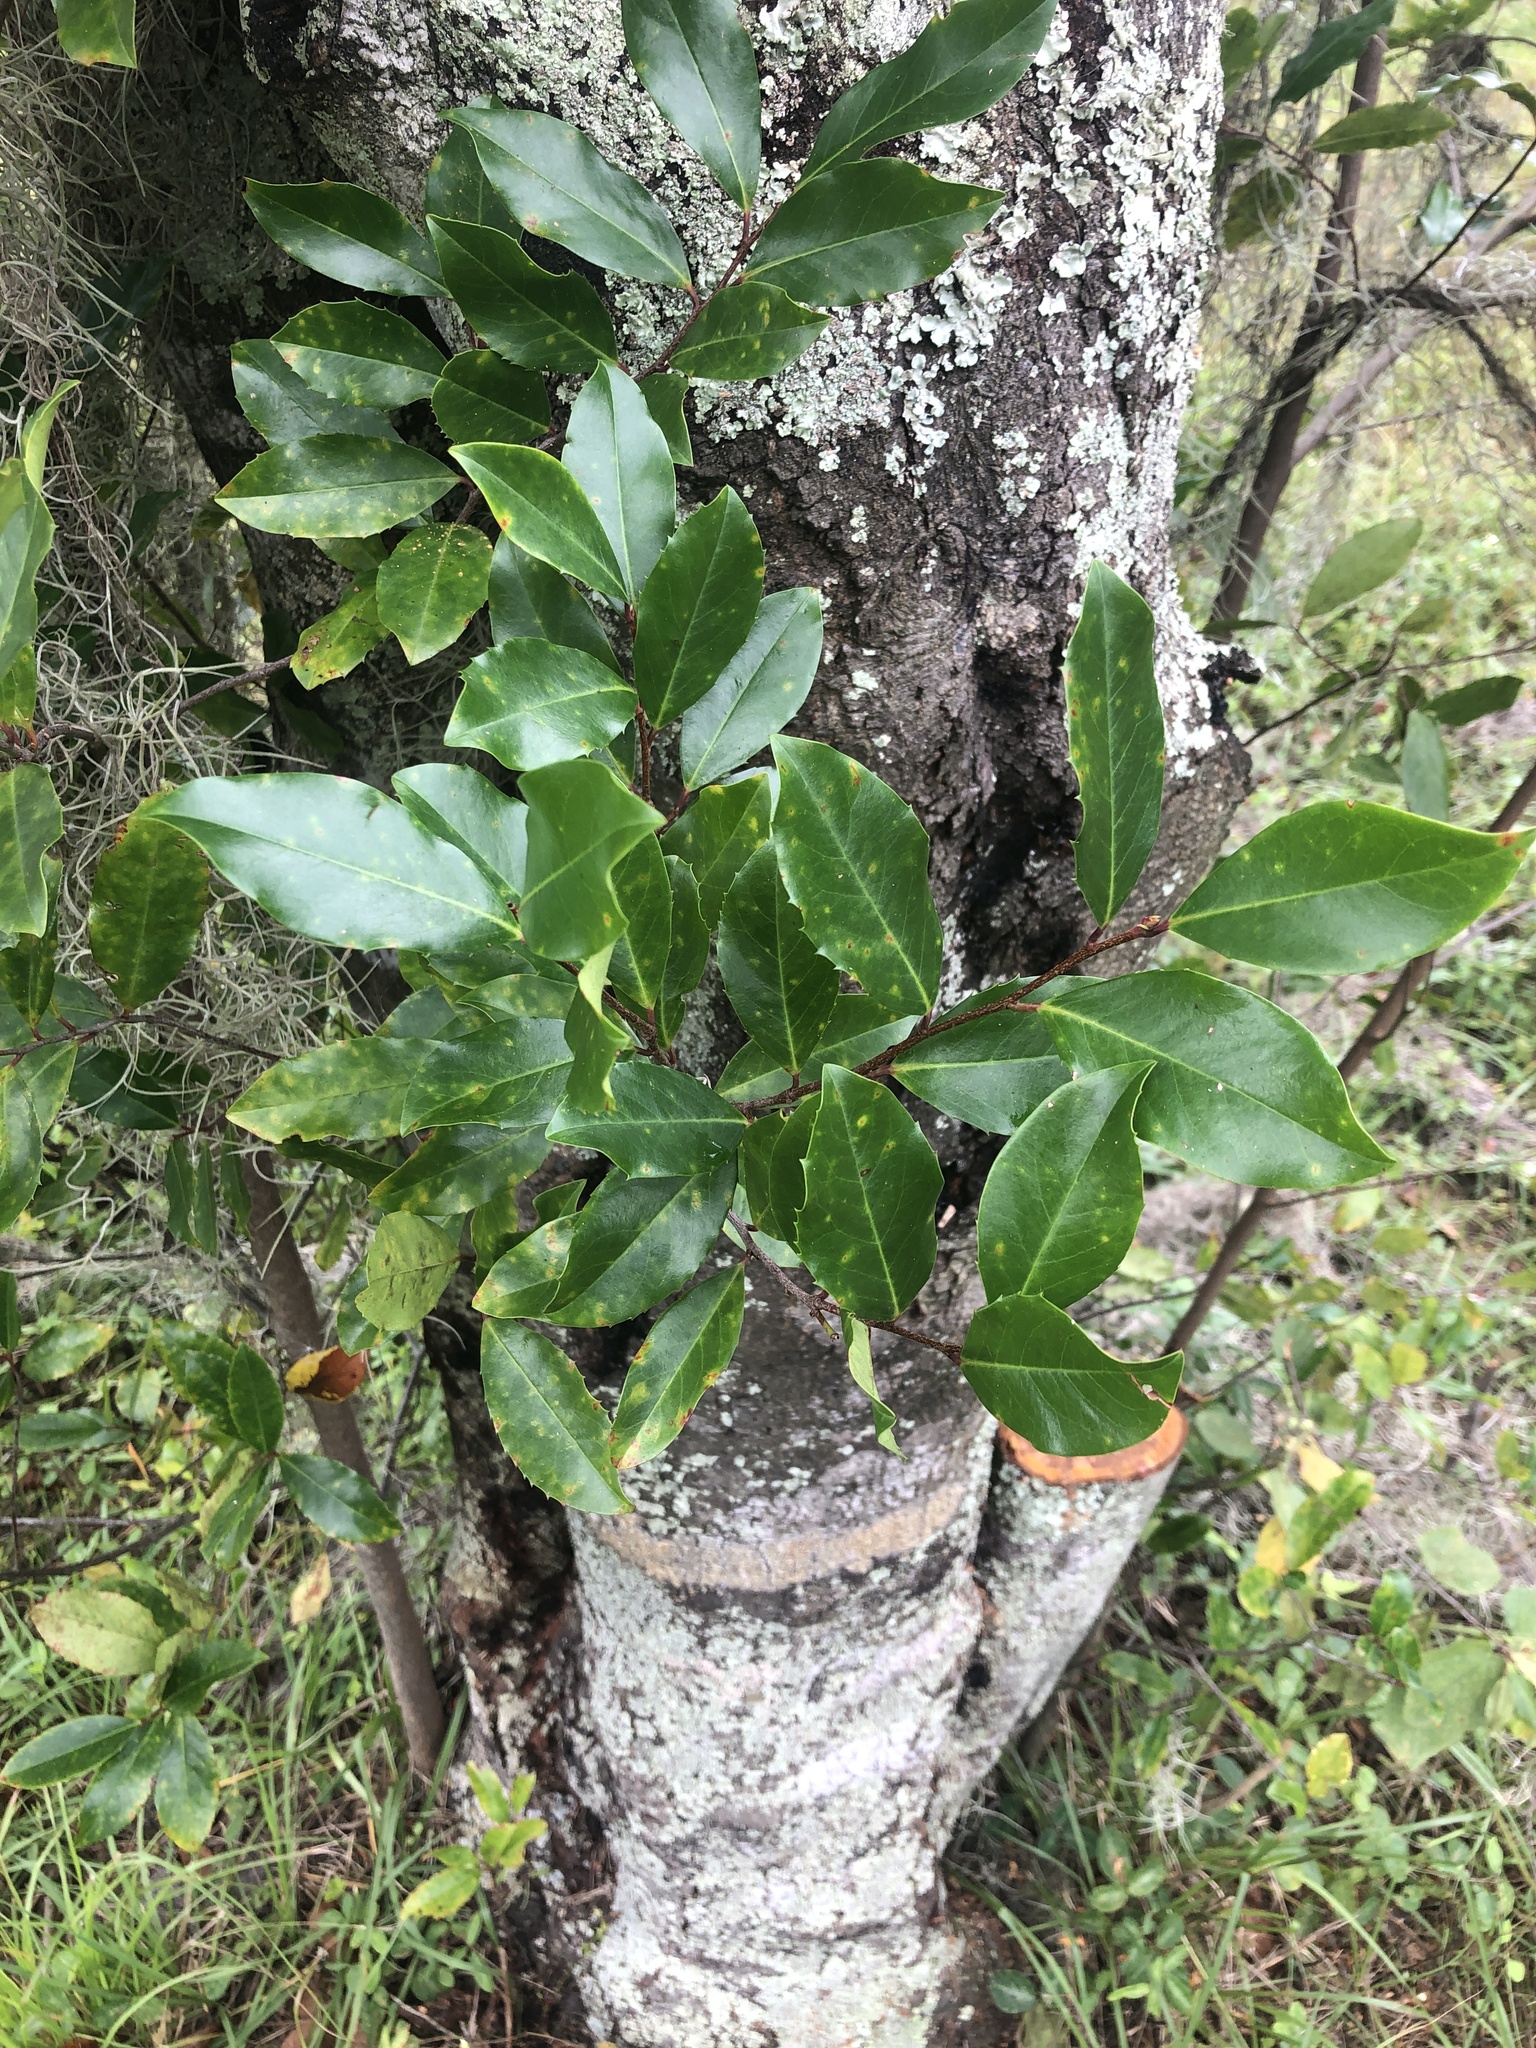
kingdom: Plantae
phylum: Tracheophyta
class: Magnoliopsida
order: Rosales
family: Rosaceae
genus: Prunus
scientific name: Prunus caroliniana
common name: Carolina laurel cherry
